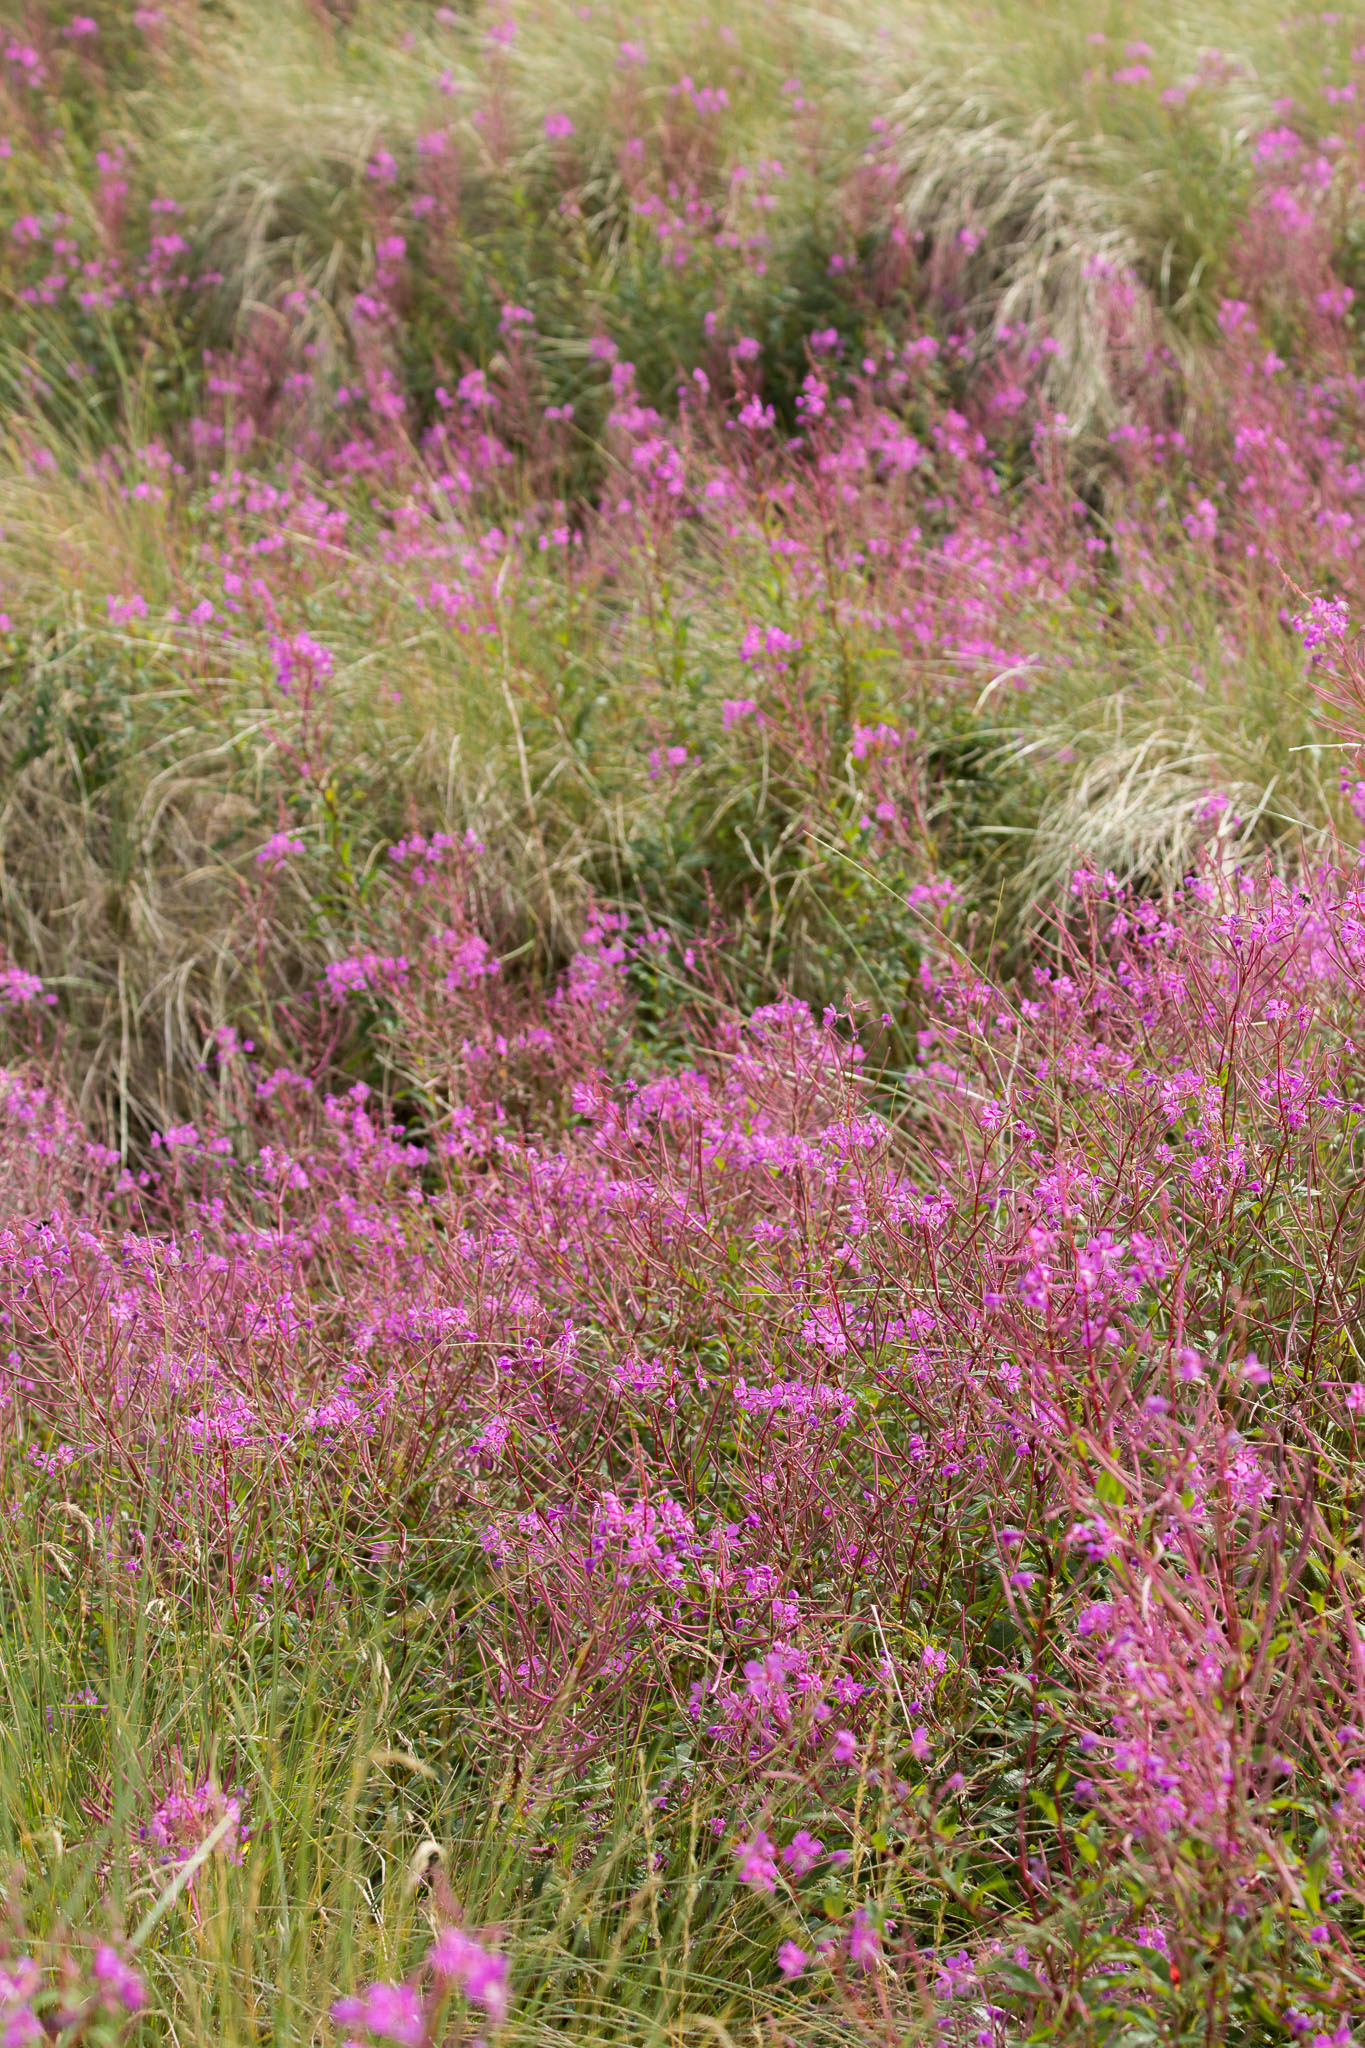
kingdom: Plantae
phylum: Tracheophyta
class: Magnoliopsida
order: Myrtales
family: Onagraceae
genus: Chamaenerion
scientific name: Chamaenerion angustifolium
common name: Fireweed
